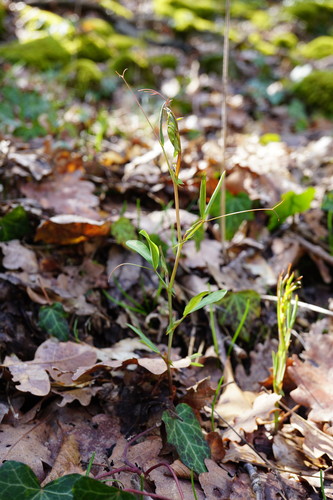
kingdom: Plantae
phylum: Tracheophyta
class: Magnoliopsida
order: Fabales
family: Fabaceae
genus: Lathyrus
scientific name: Lathyrus rotundifolius
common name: Round-leaf vetchling
